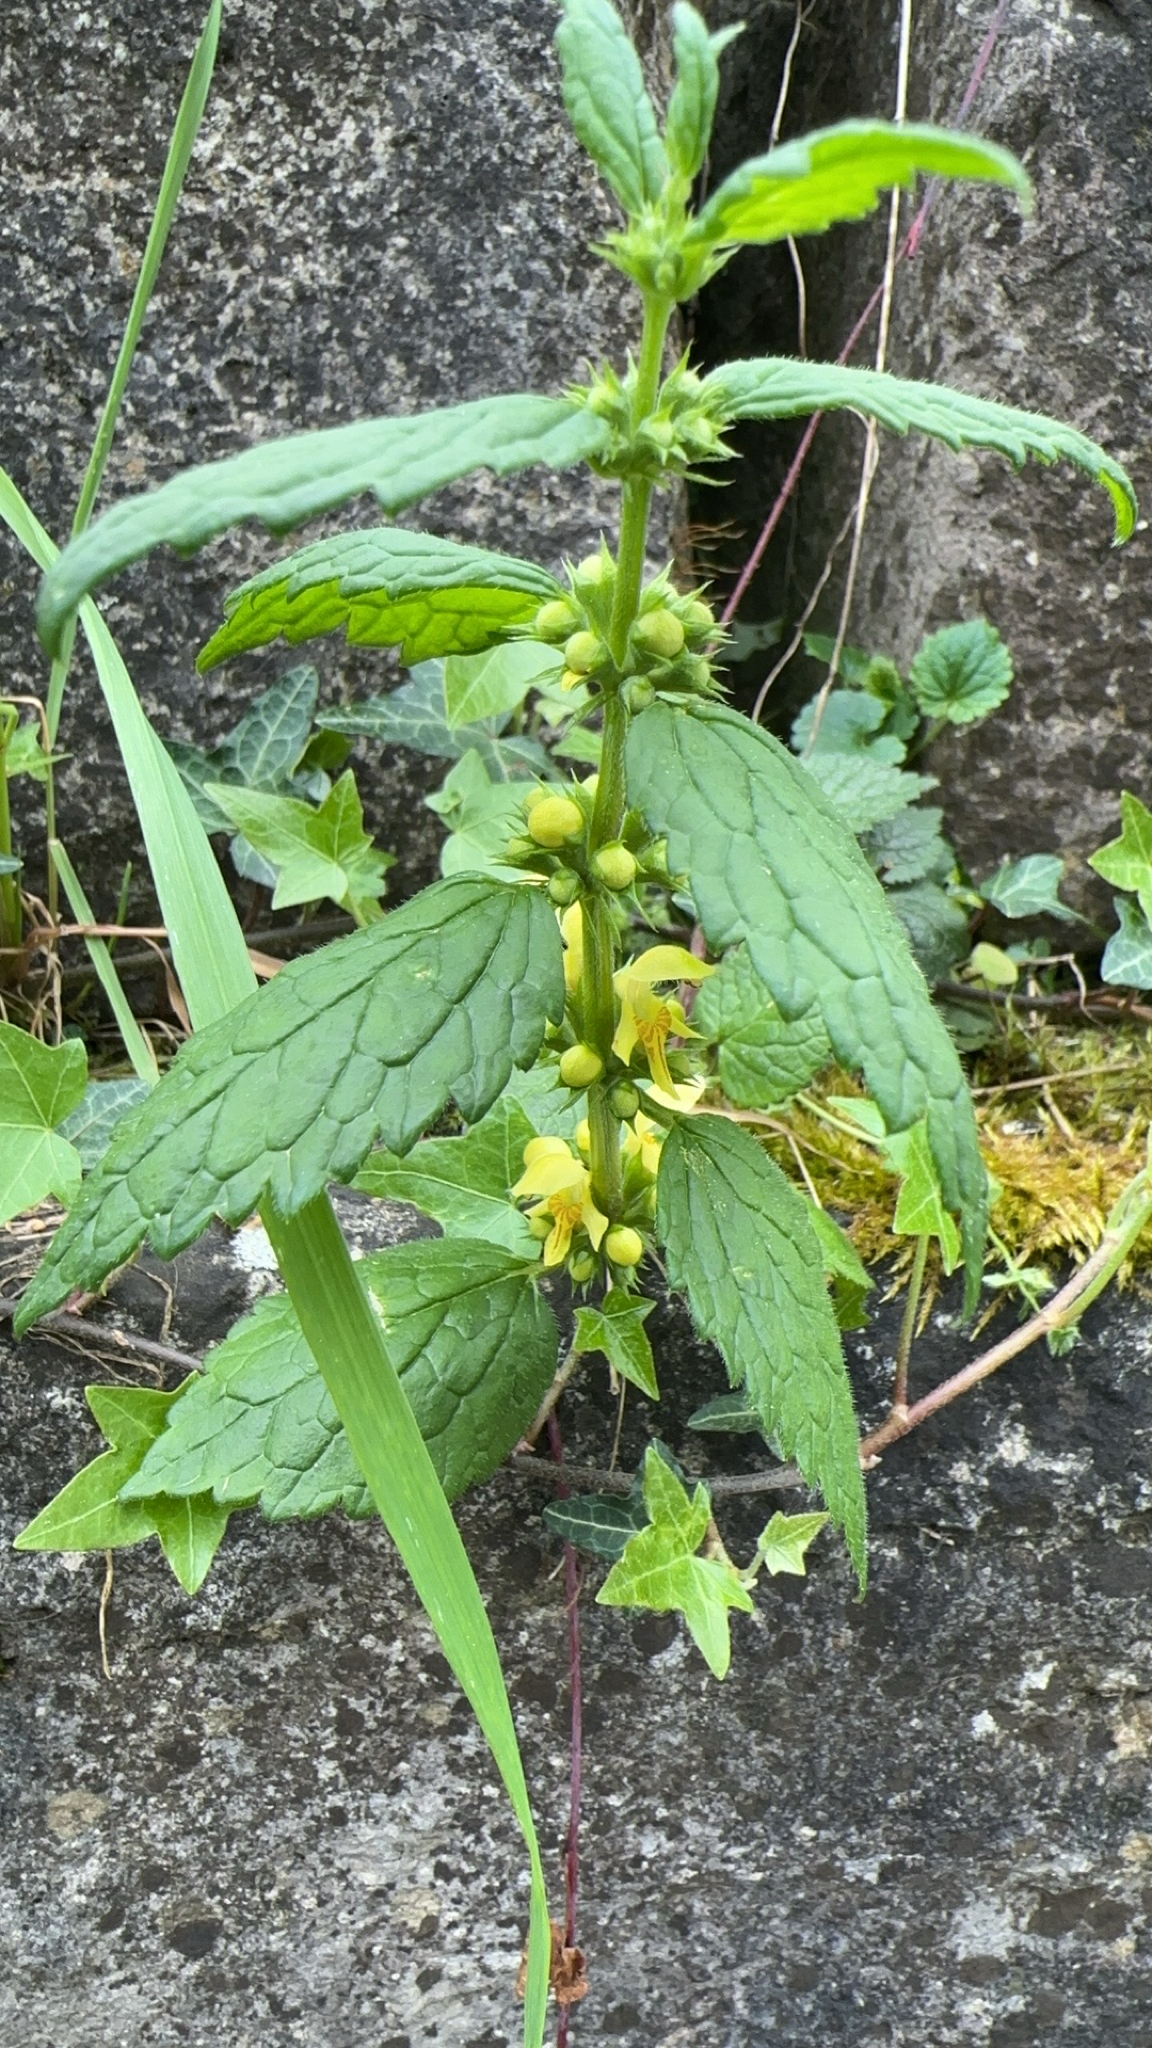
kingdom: Plantae
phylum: Tracheophyta
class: Magnoliopsida
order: Lamiales
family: Lamiaceae
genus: Lamium
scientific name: Lamium galeobdolon
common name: Yellow archangel
